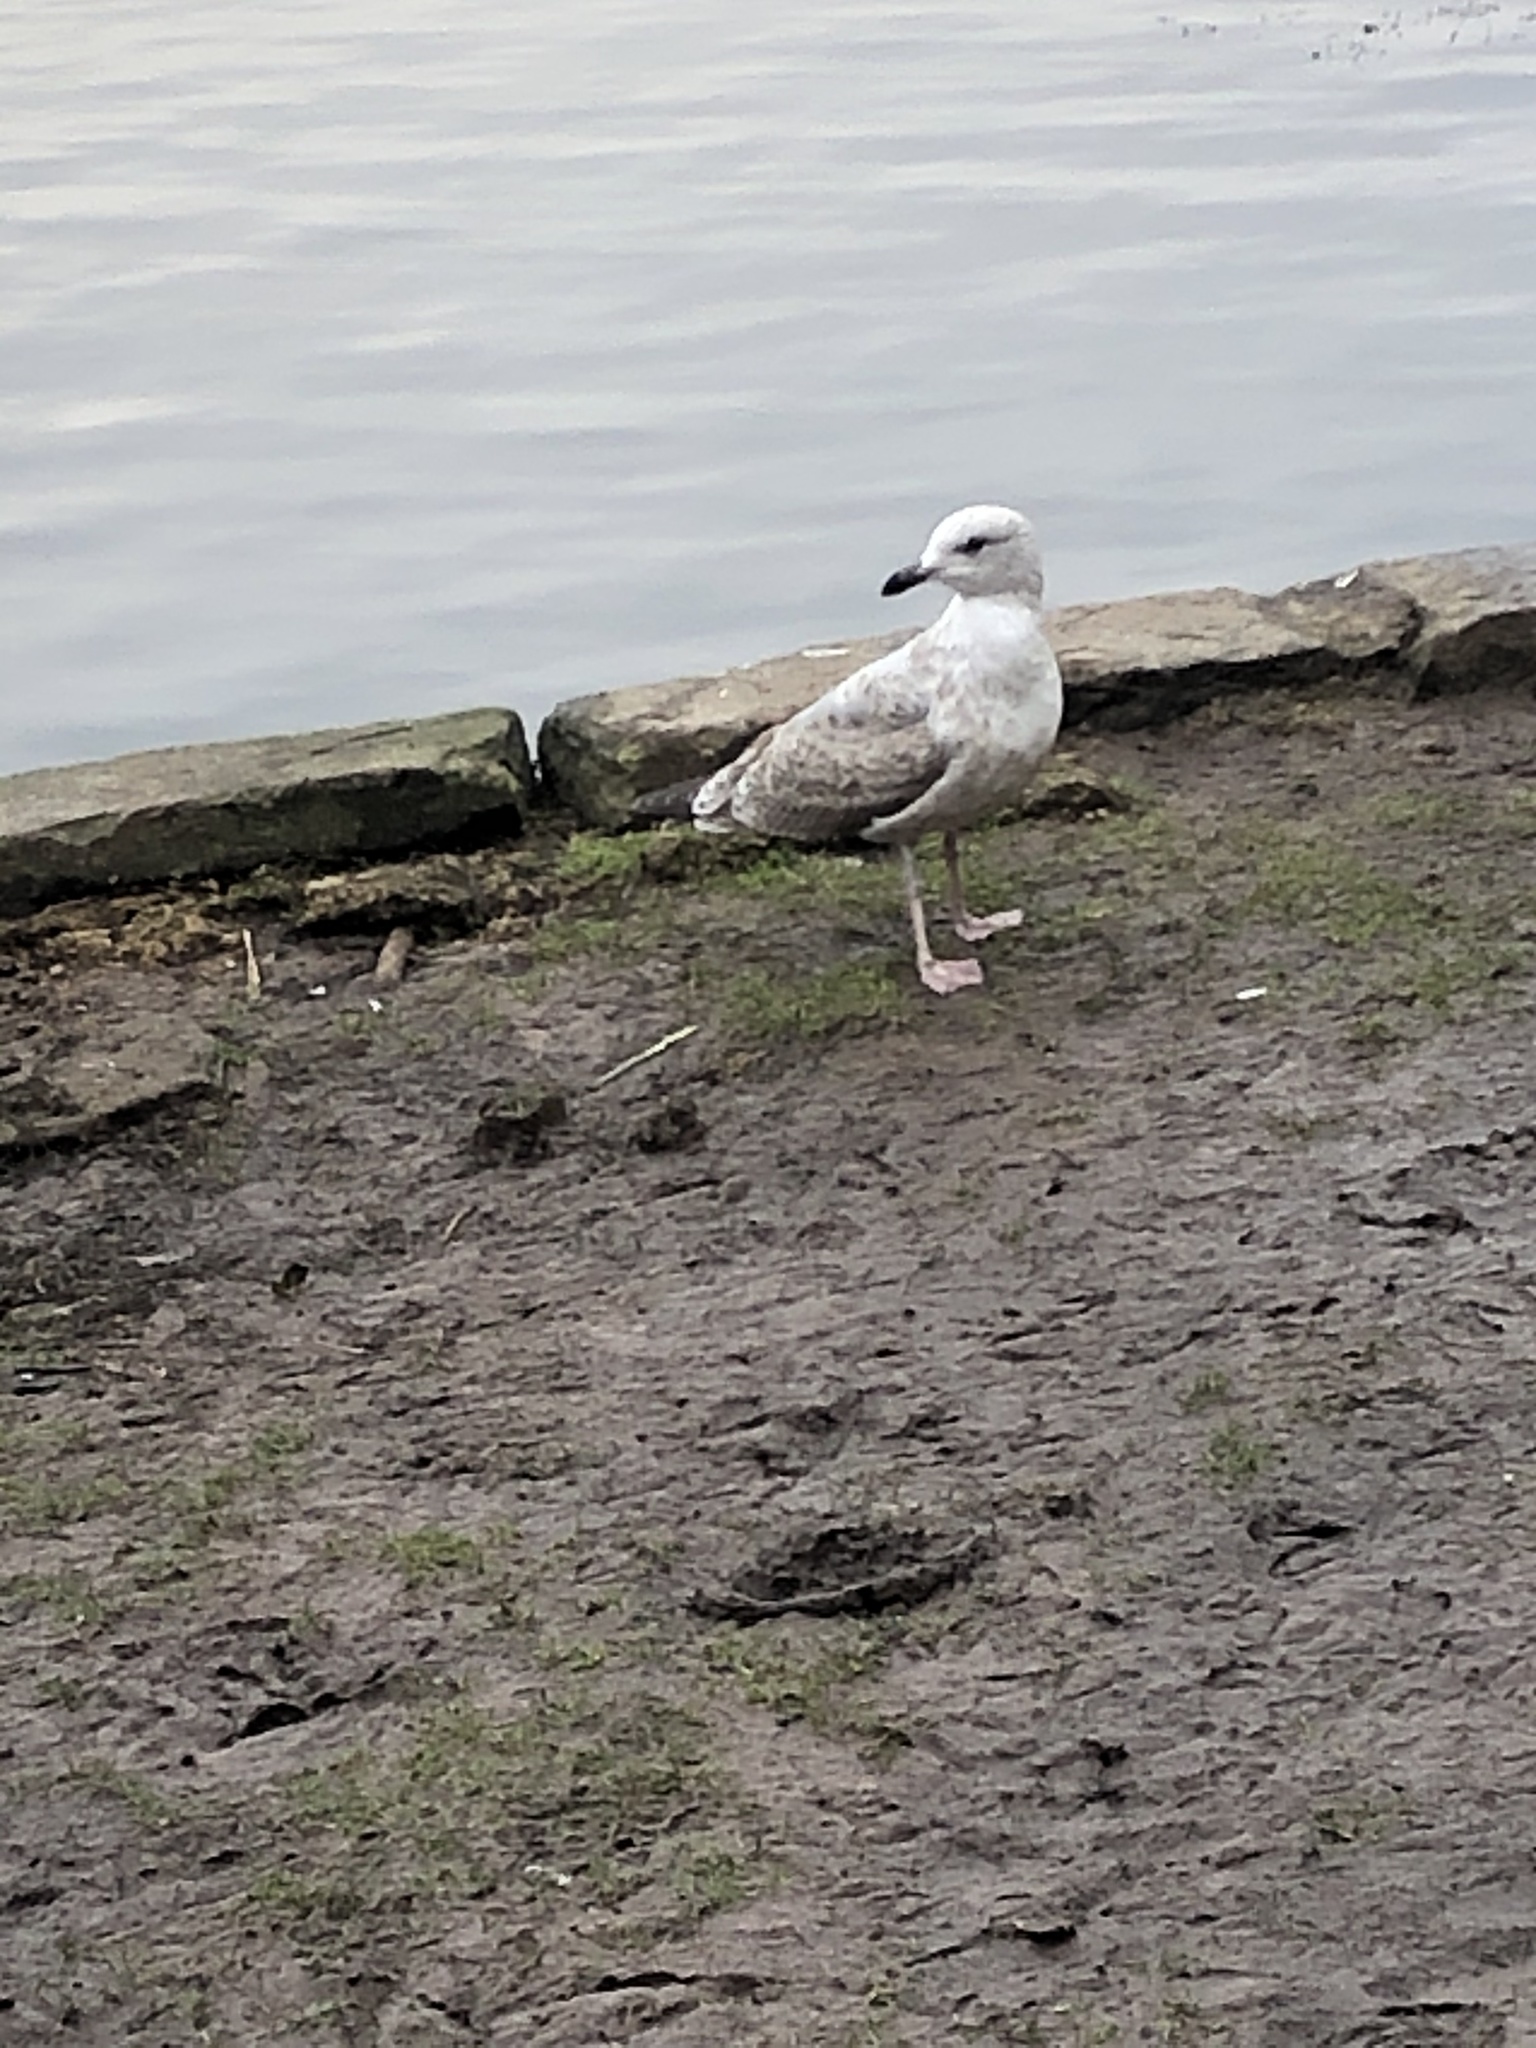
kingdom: Animalia
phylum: Chordata
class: Aves
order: Charadriiformes
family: Laridae
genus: Larus
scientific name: Larus argentatus
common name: Herring gull
